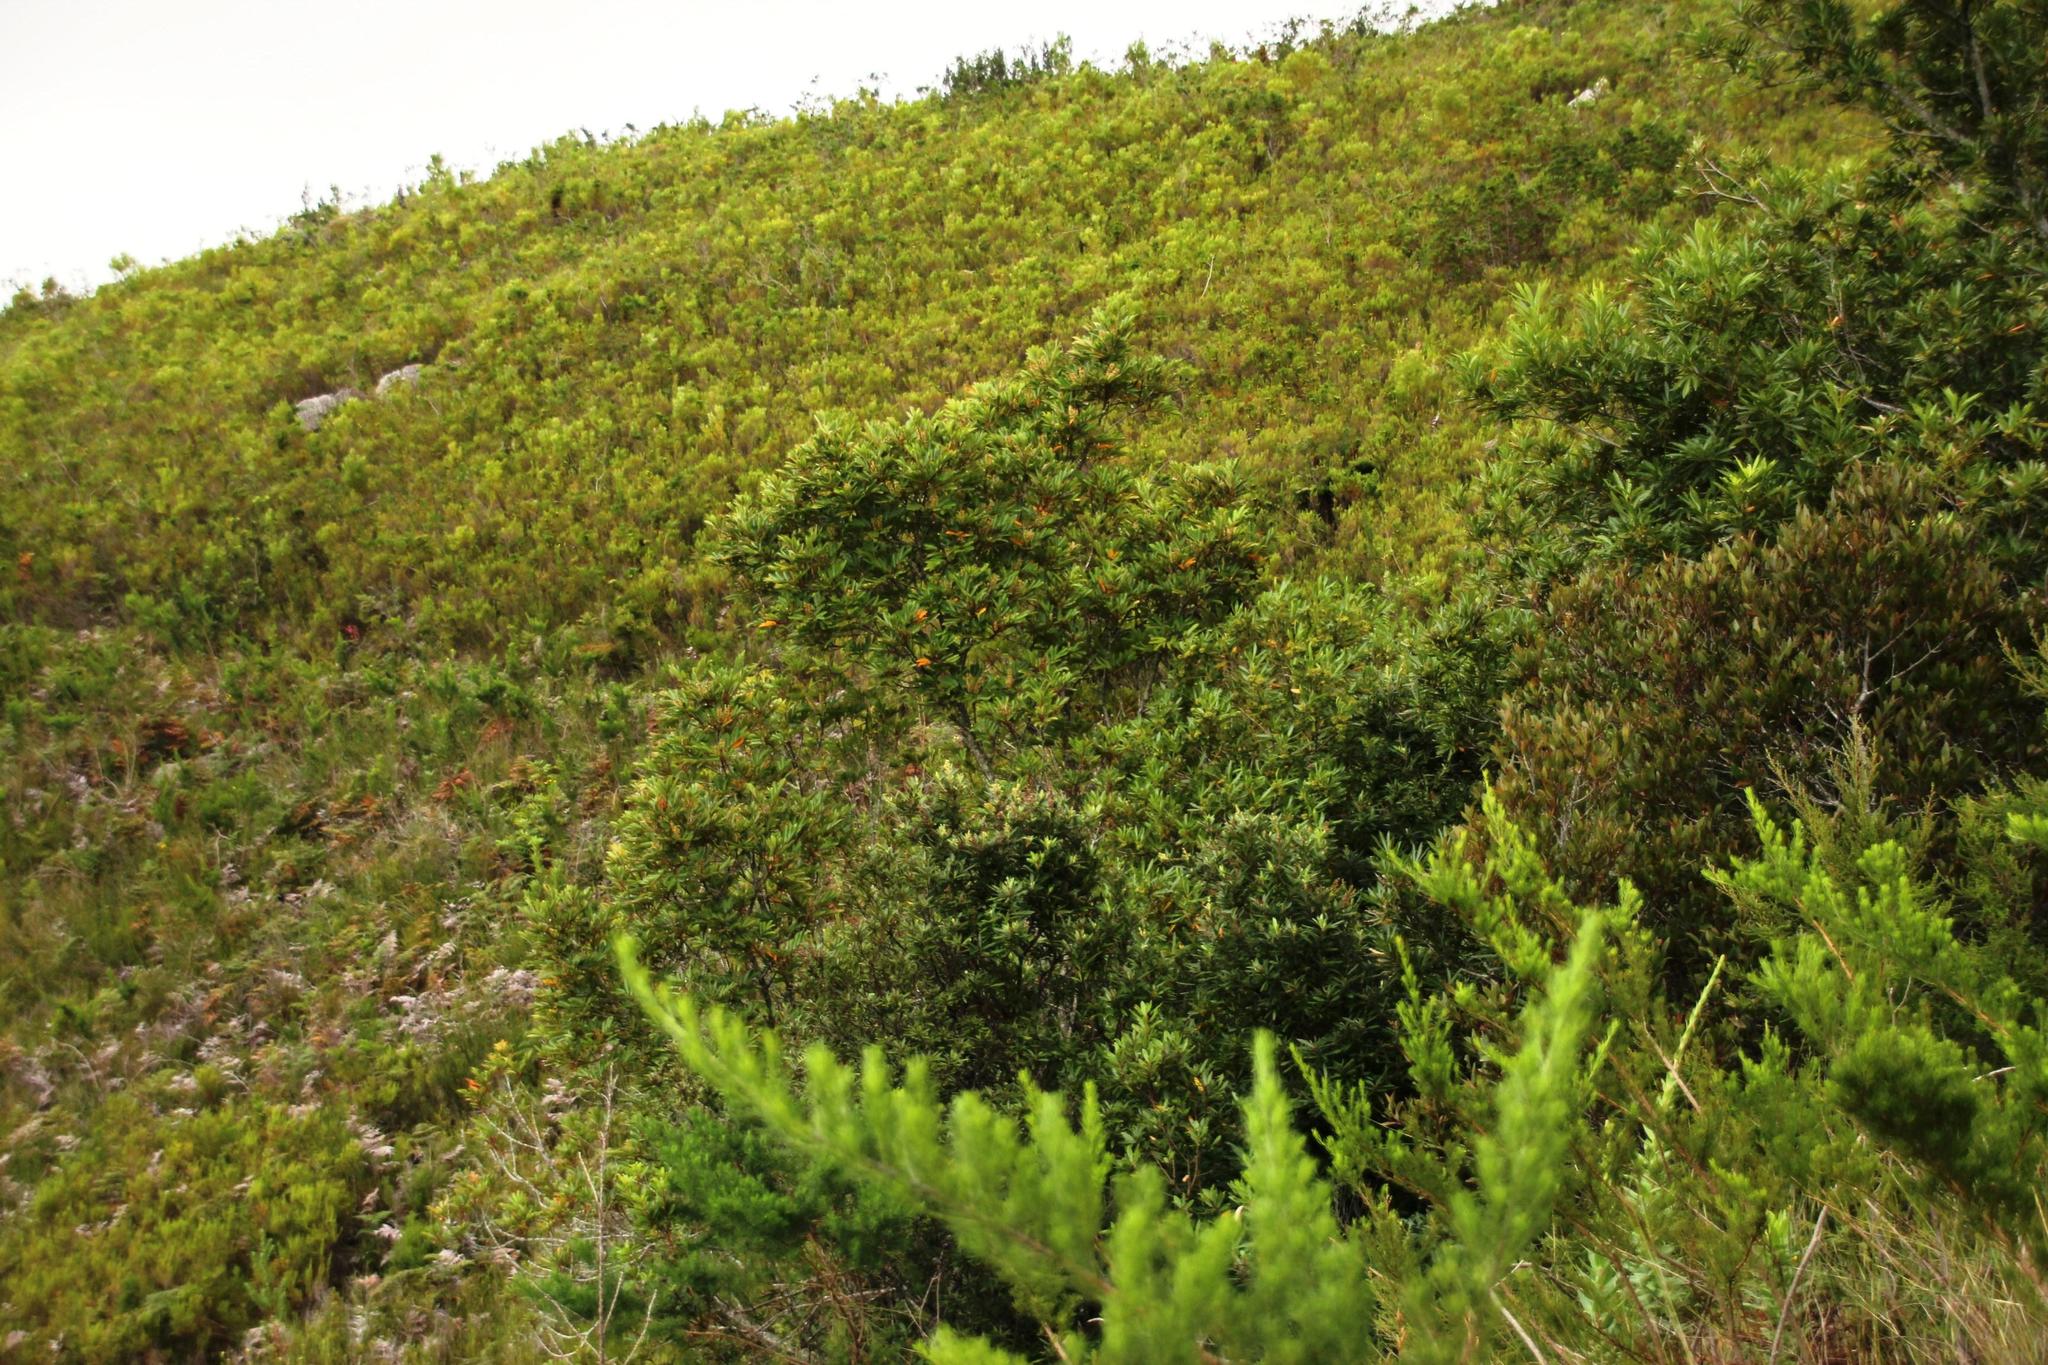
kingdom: Plantae
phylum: Tracheophyta
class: Magnoliopsida
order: Oxalidales
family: Cunoniaceae
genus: Cunonia
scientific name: Cunonia capensis
